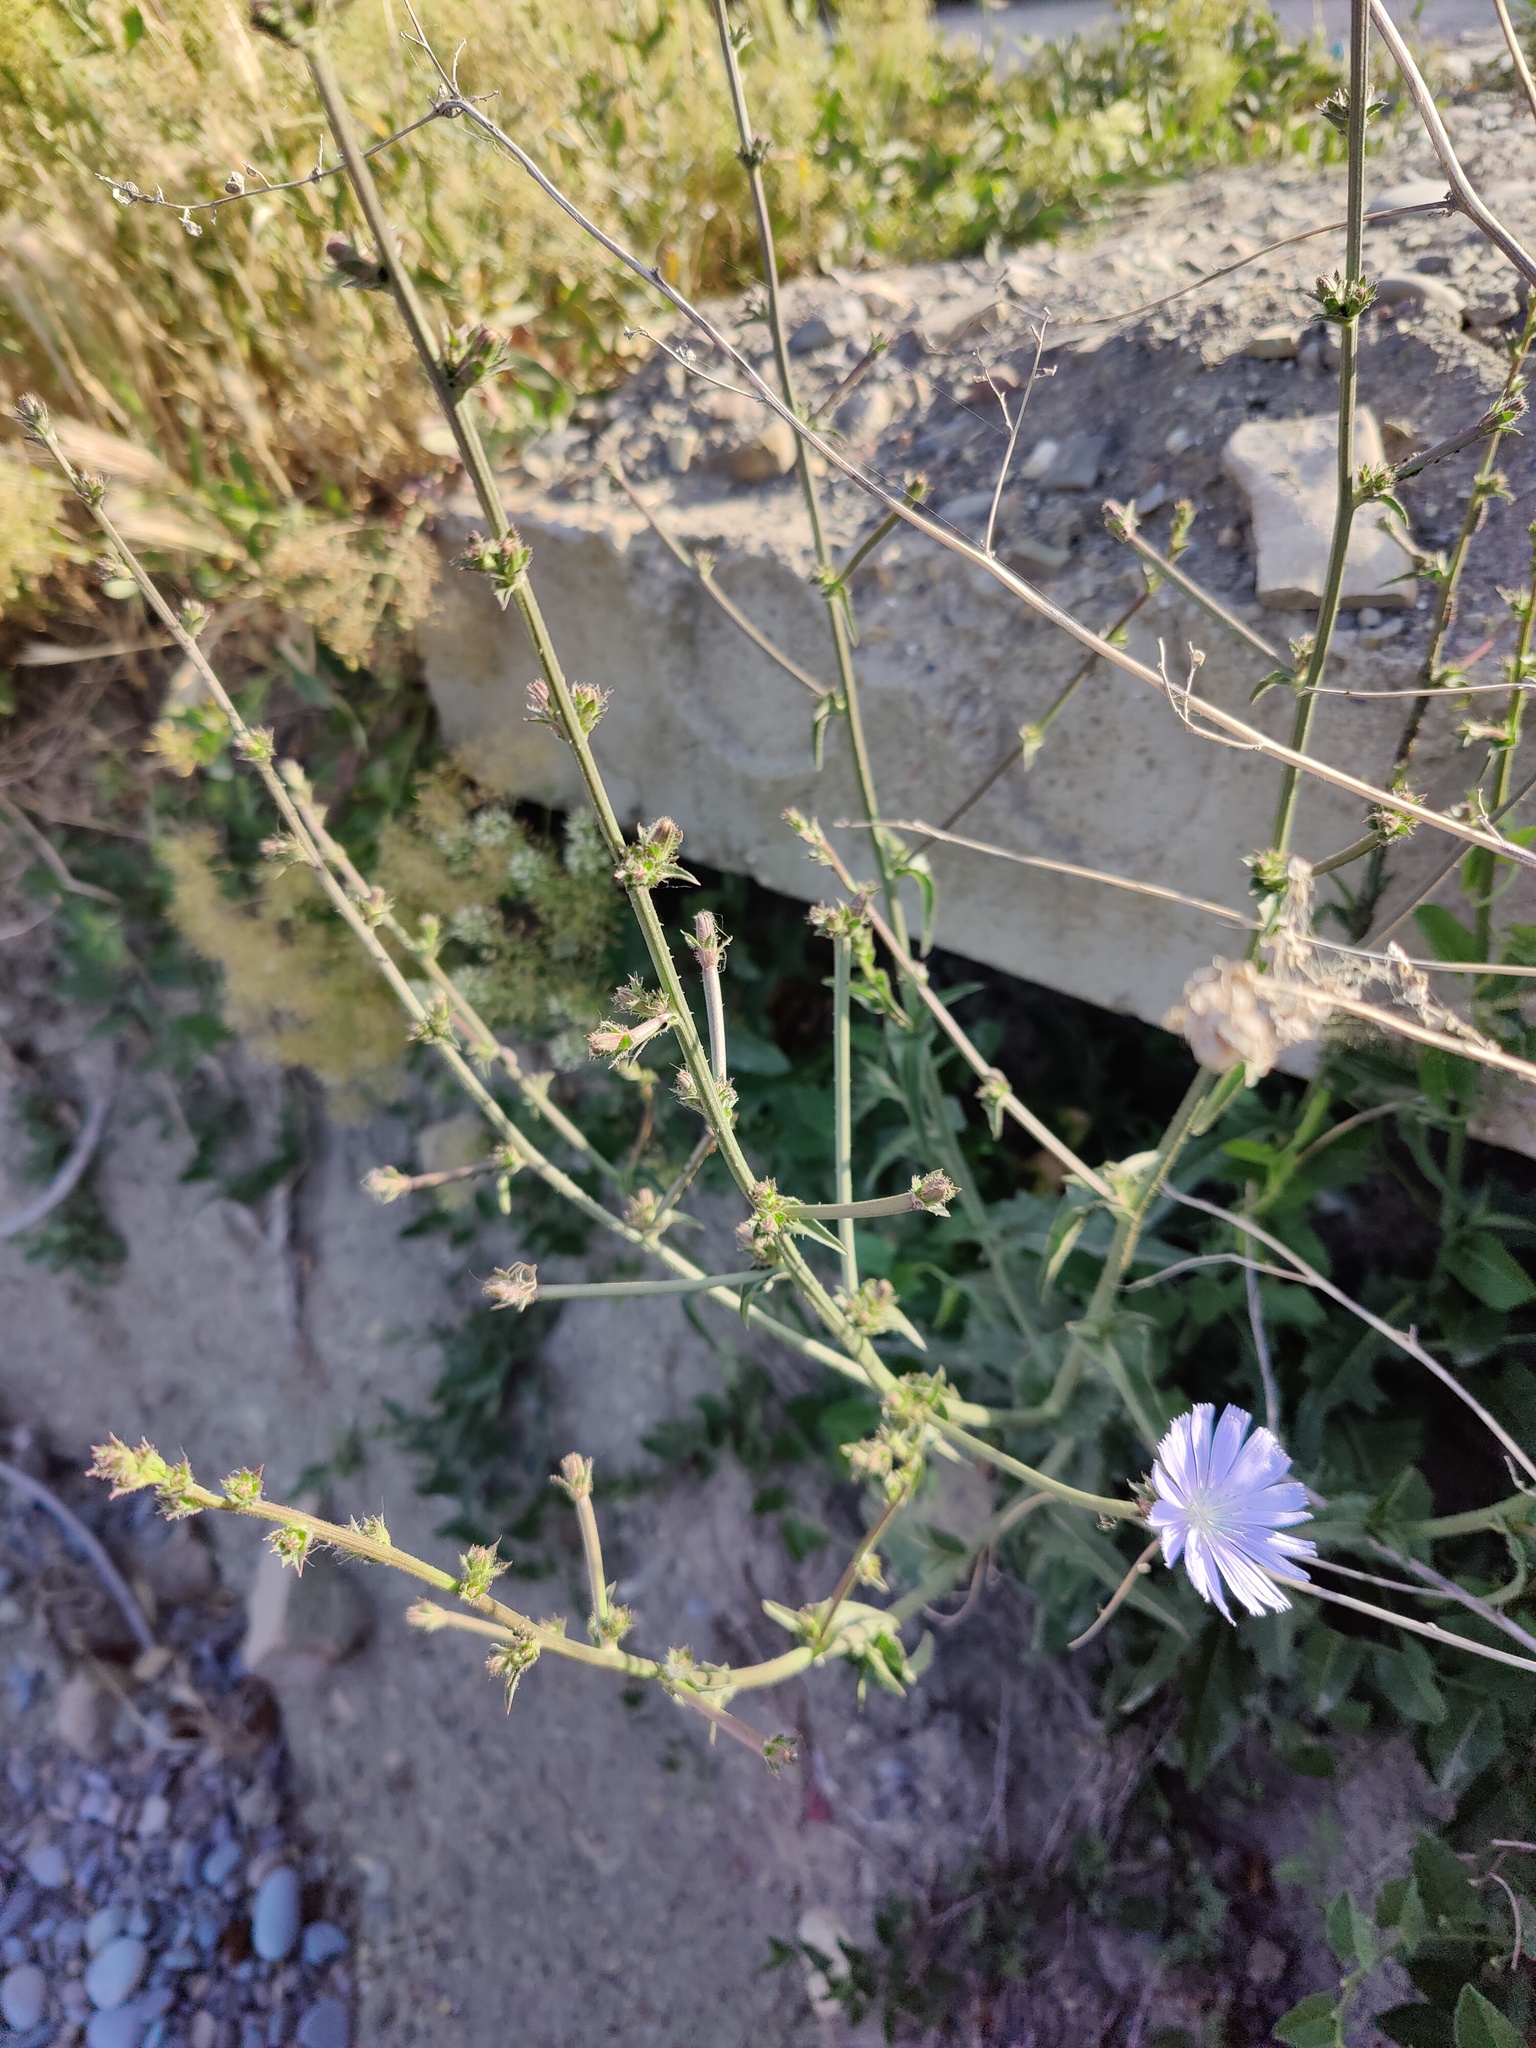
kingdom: Plantae
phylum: Tracheophyta
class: Magnoliopsida
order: Asterales
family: Asteraceae
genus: Cichorium
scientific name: Cichorium intybus
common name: Chicory
